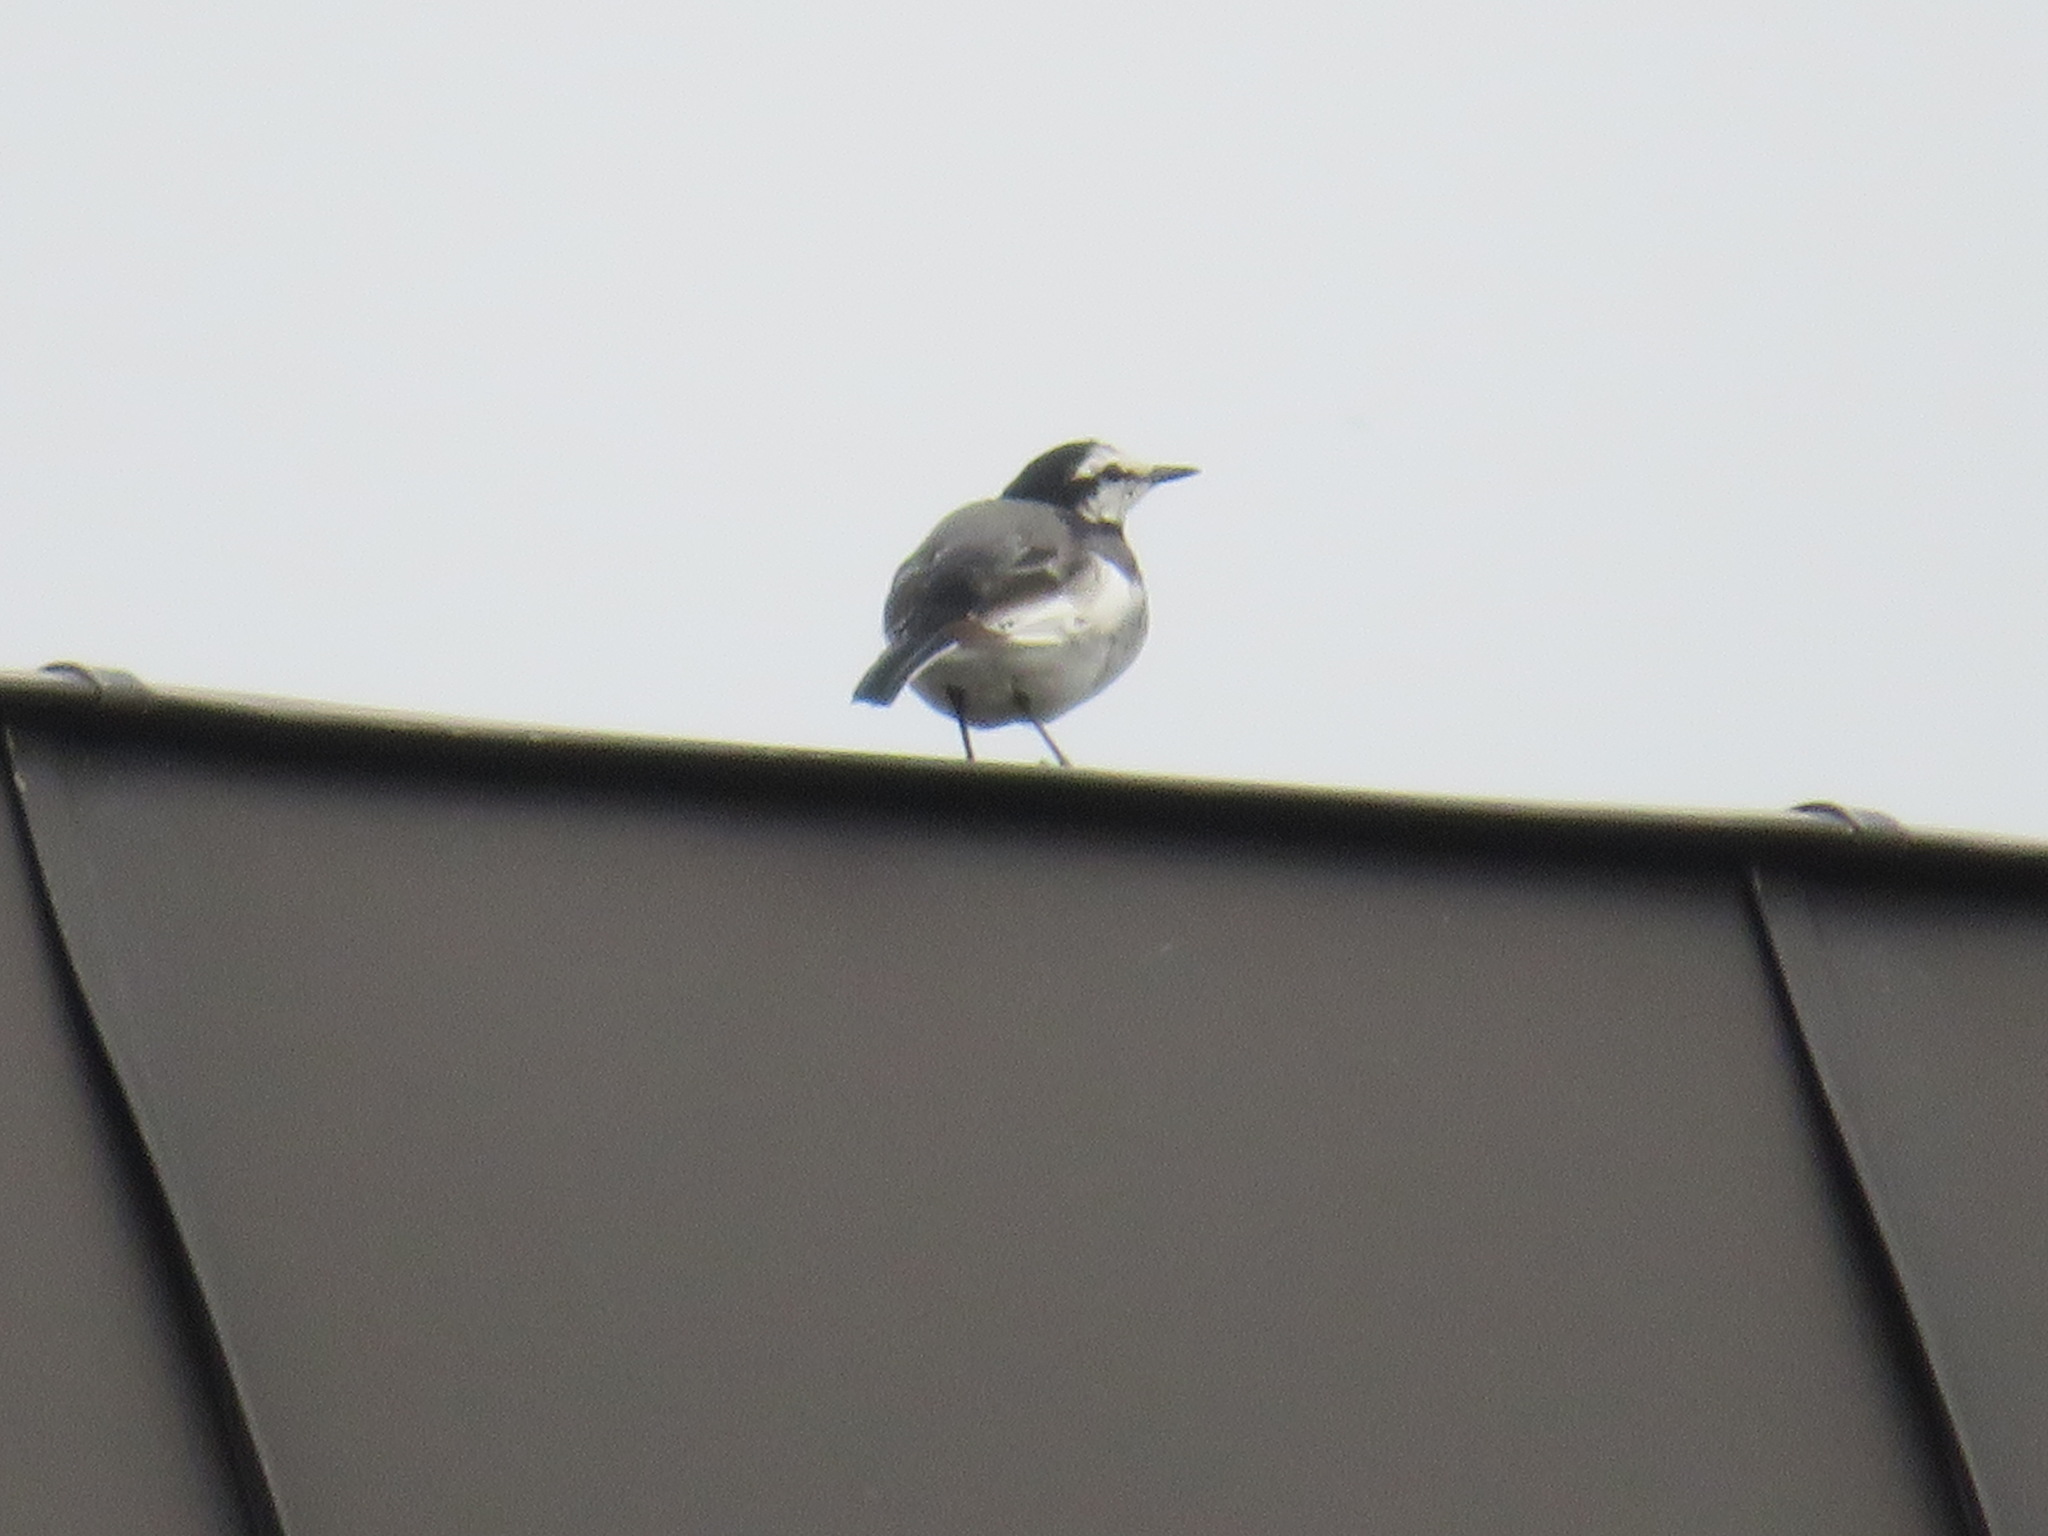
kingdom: Animalia
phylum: Chordata
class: Aves
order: Passeriformes
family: Motacillidae
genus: Motacilla
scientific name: Motacilla alba
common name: White wagtail
